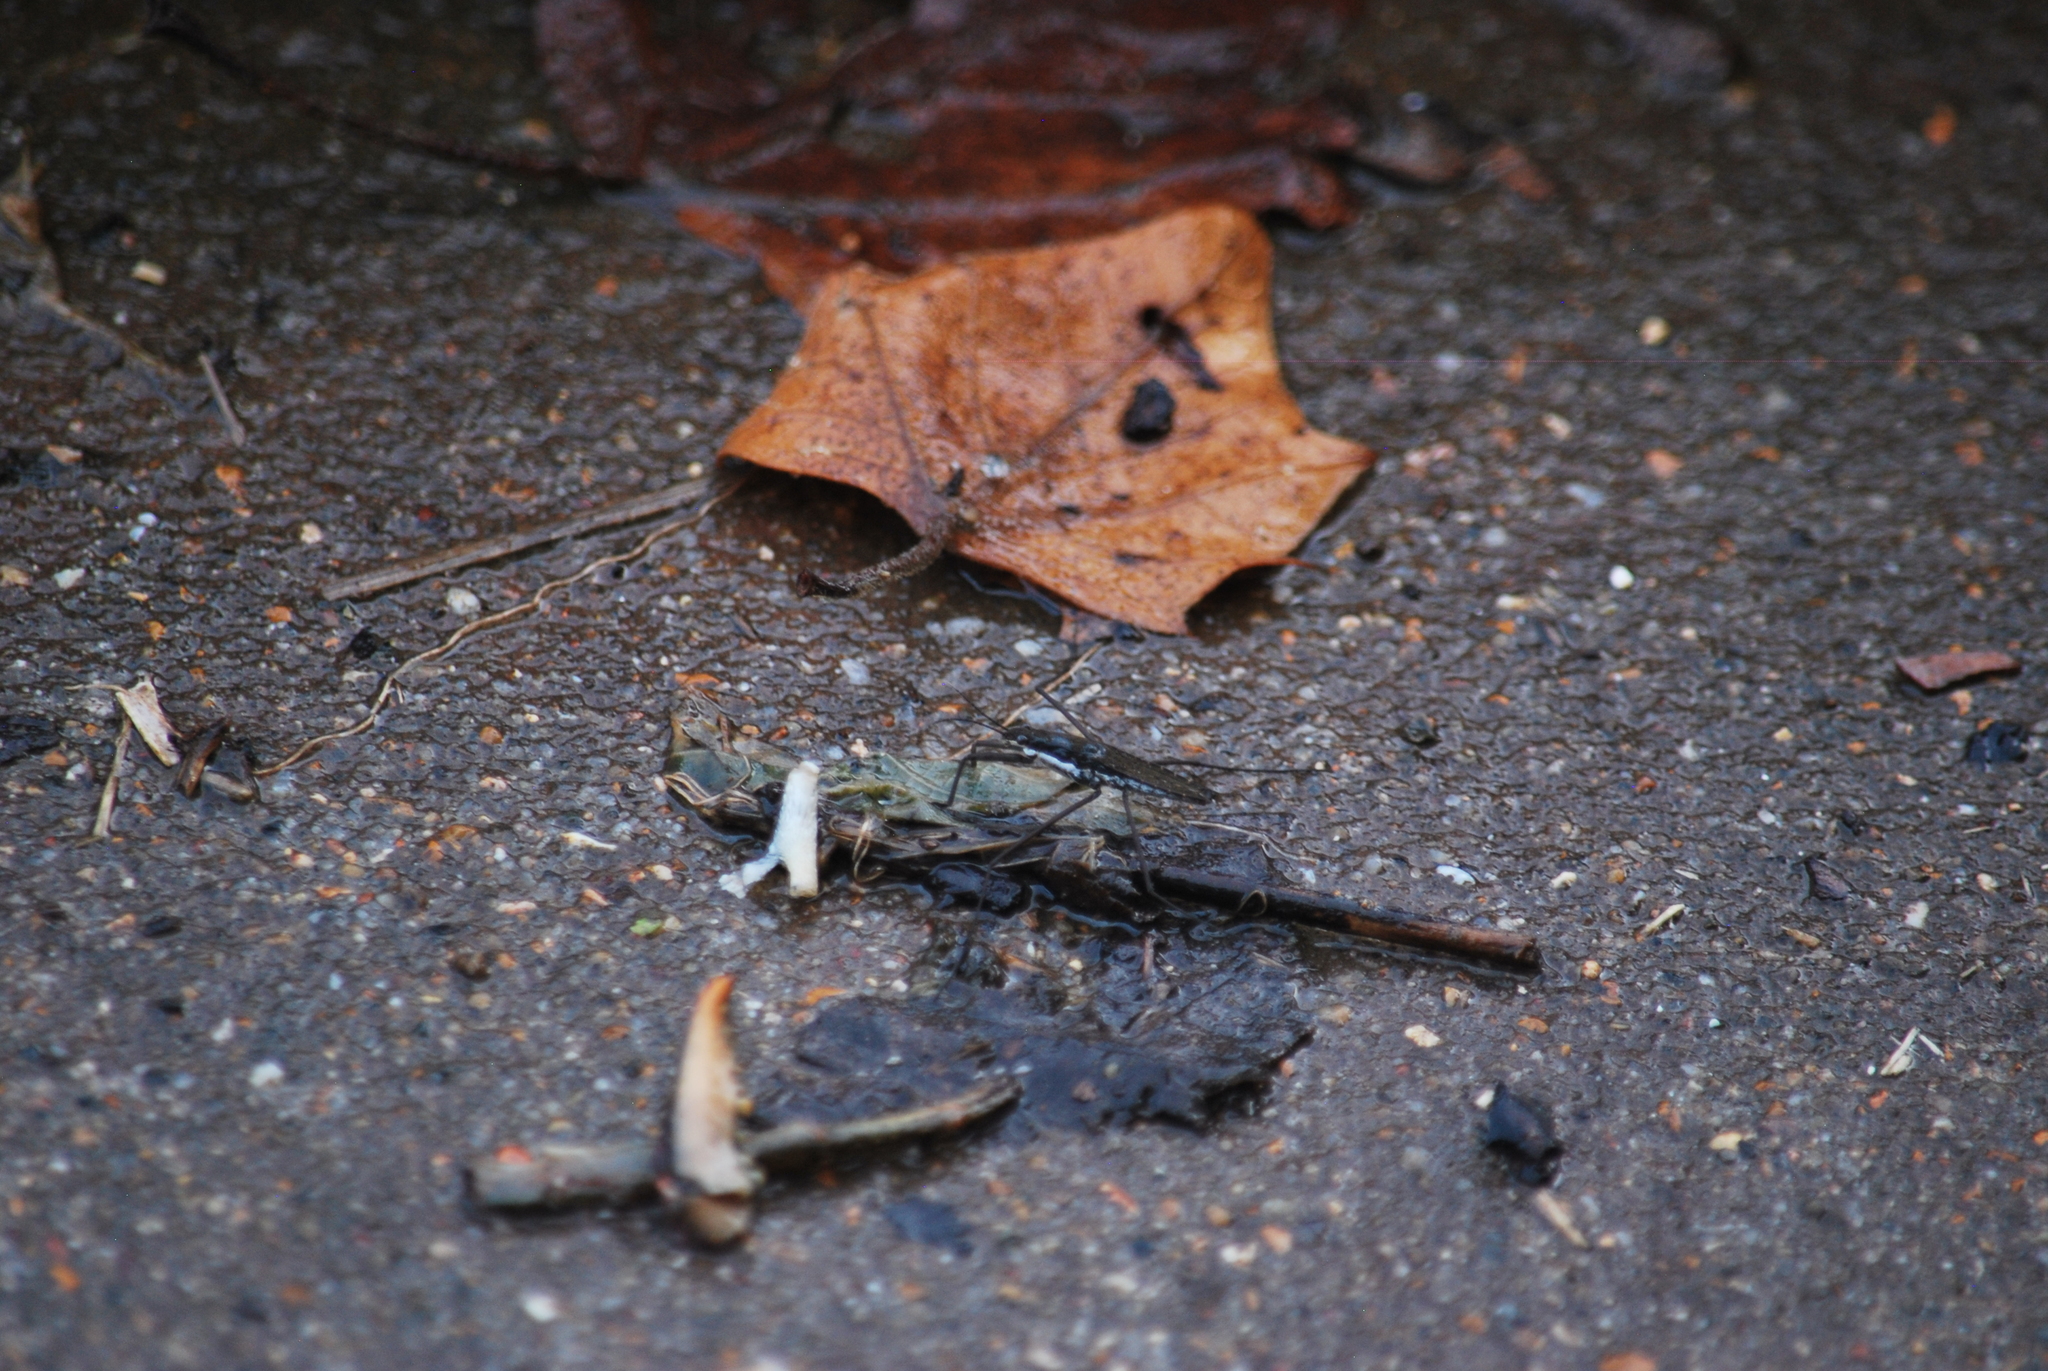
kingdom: Animalia
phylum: Arthropoda
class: Insecta
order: Hemiptera
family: Gerridae
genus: Aquarius
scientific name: Aquarius remigis
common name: Common water strider
